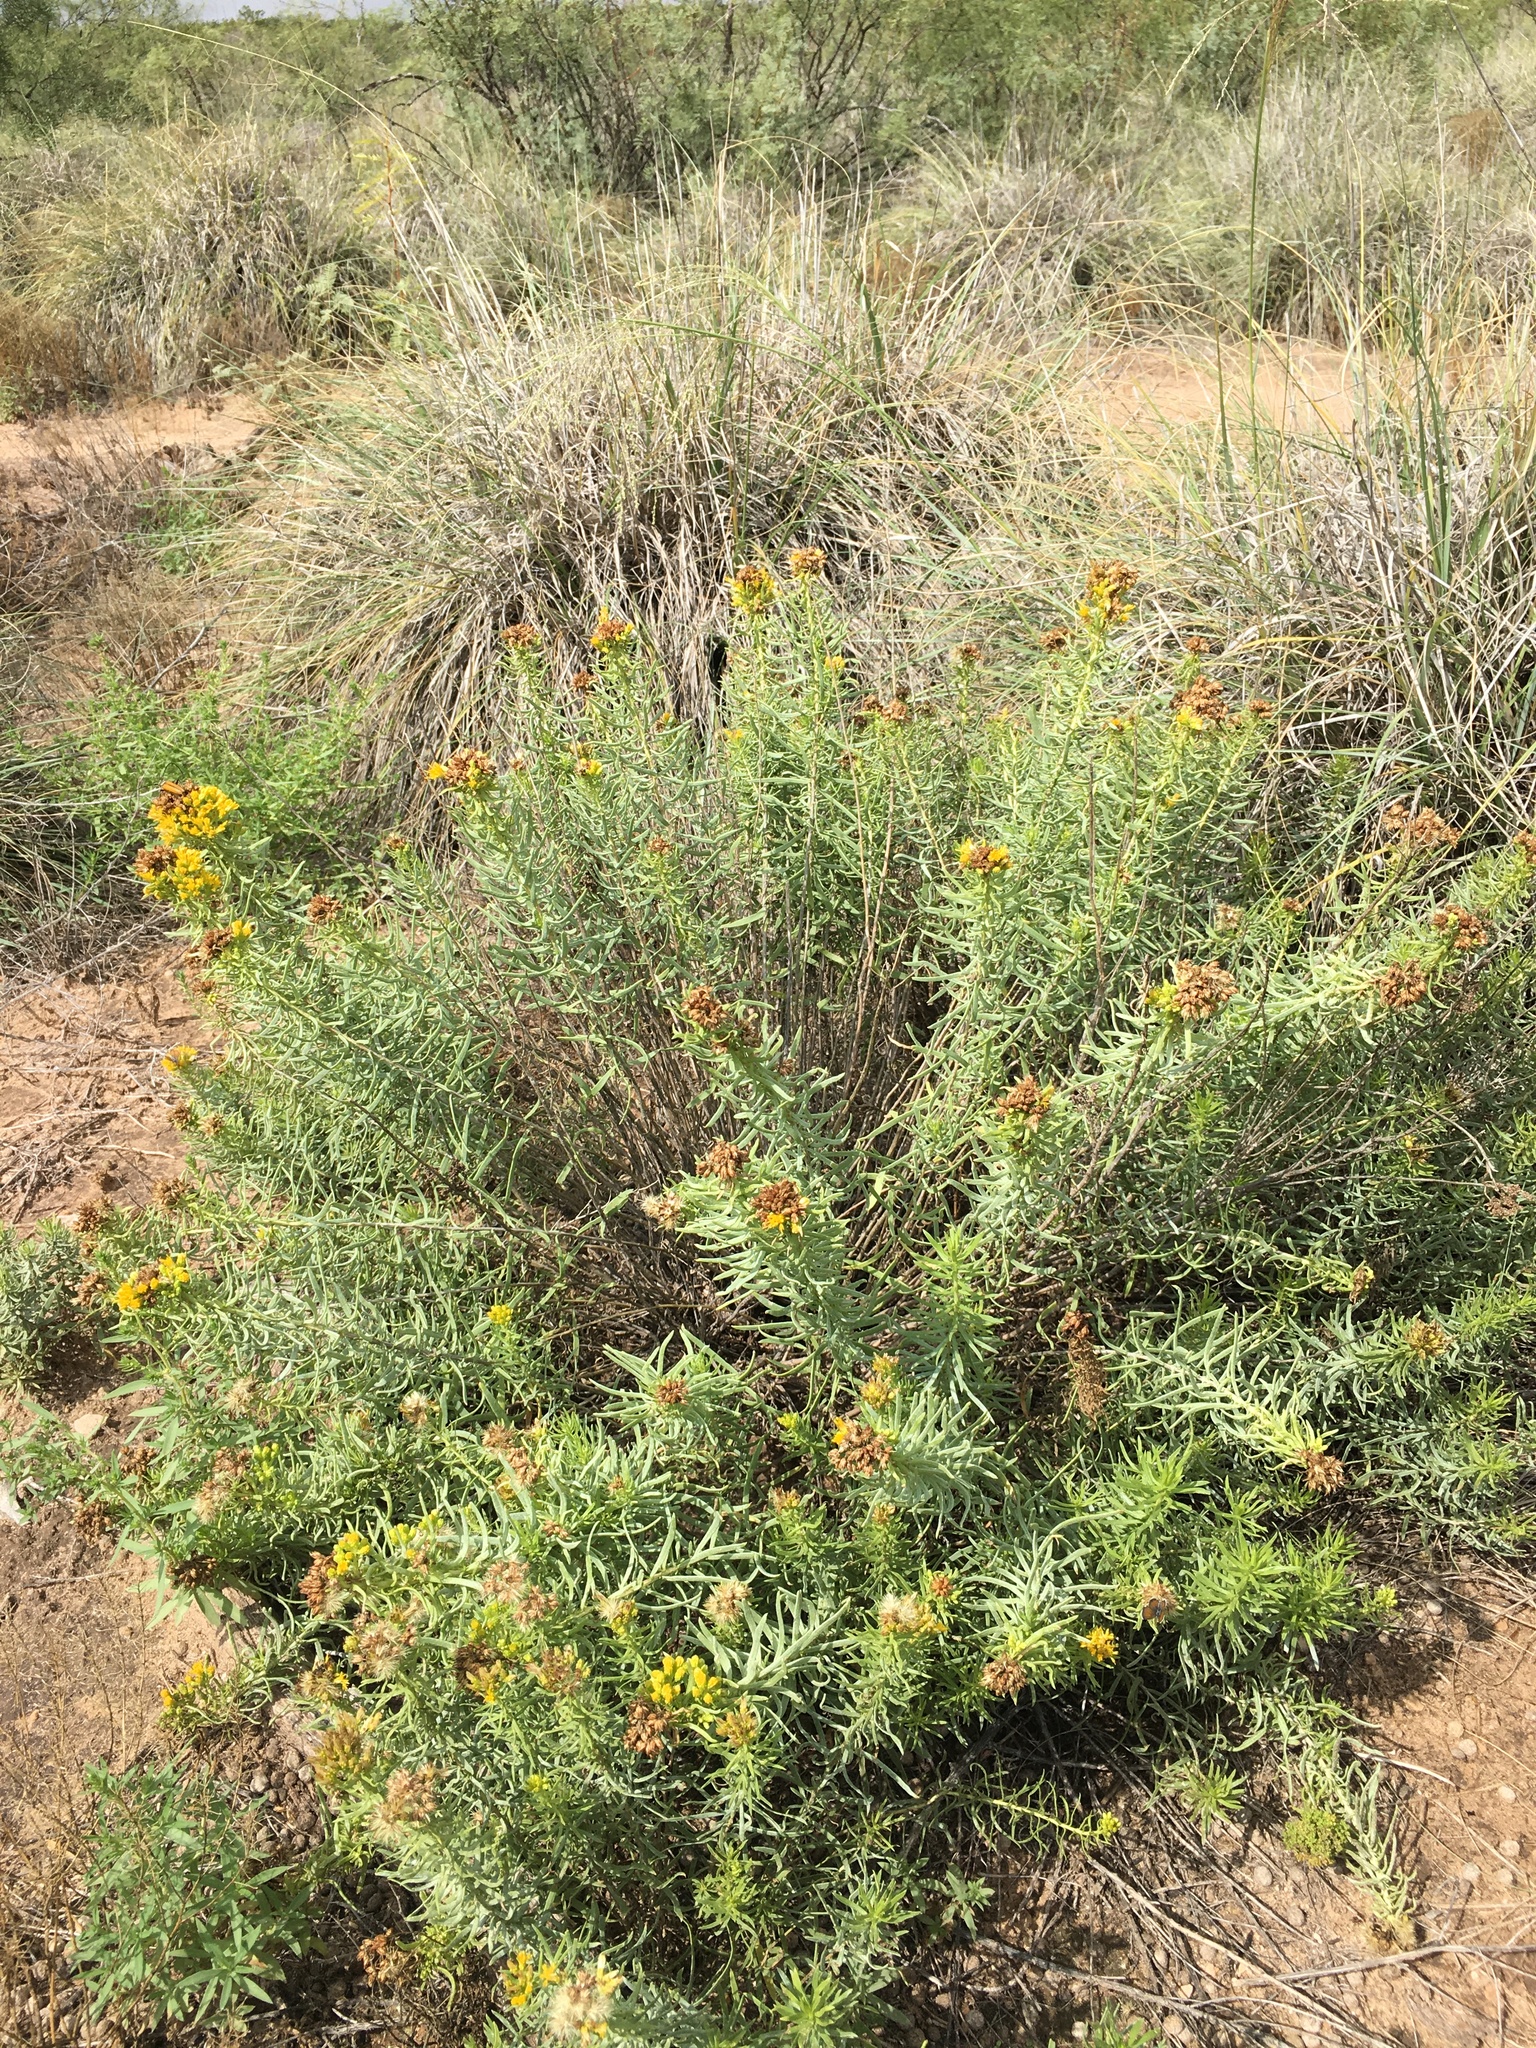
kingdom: Plantae
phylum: Tracheophyta
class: Magnoliopsida
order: Asterales
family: Asteraceae
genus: Isocoma
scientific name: Isocoma pluriflora
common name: Southern jimmyweed
